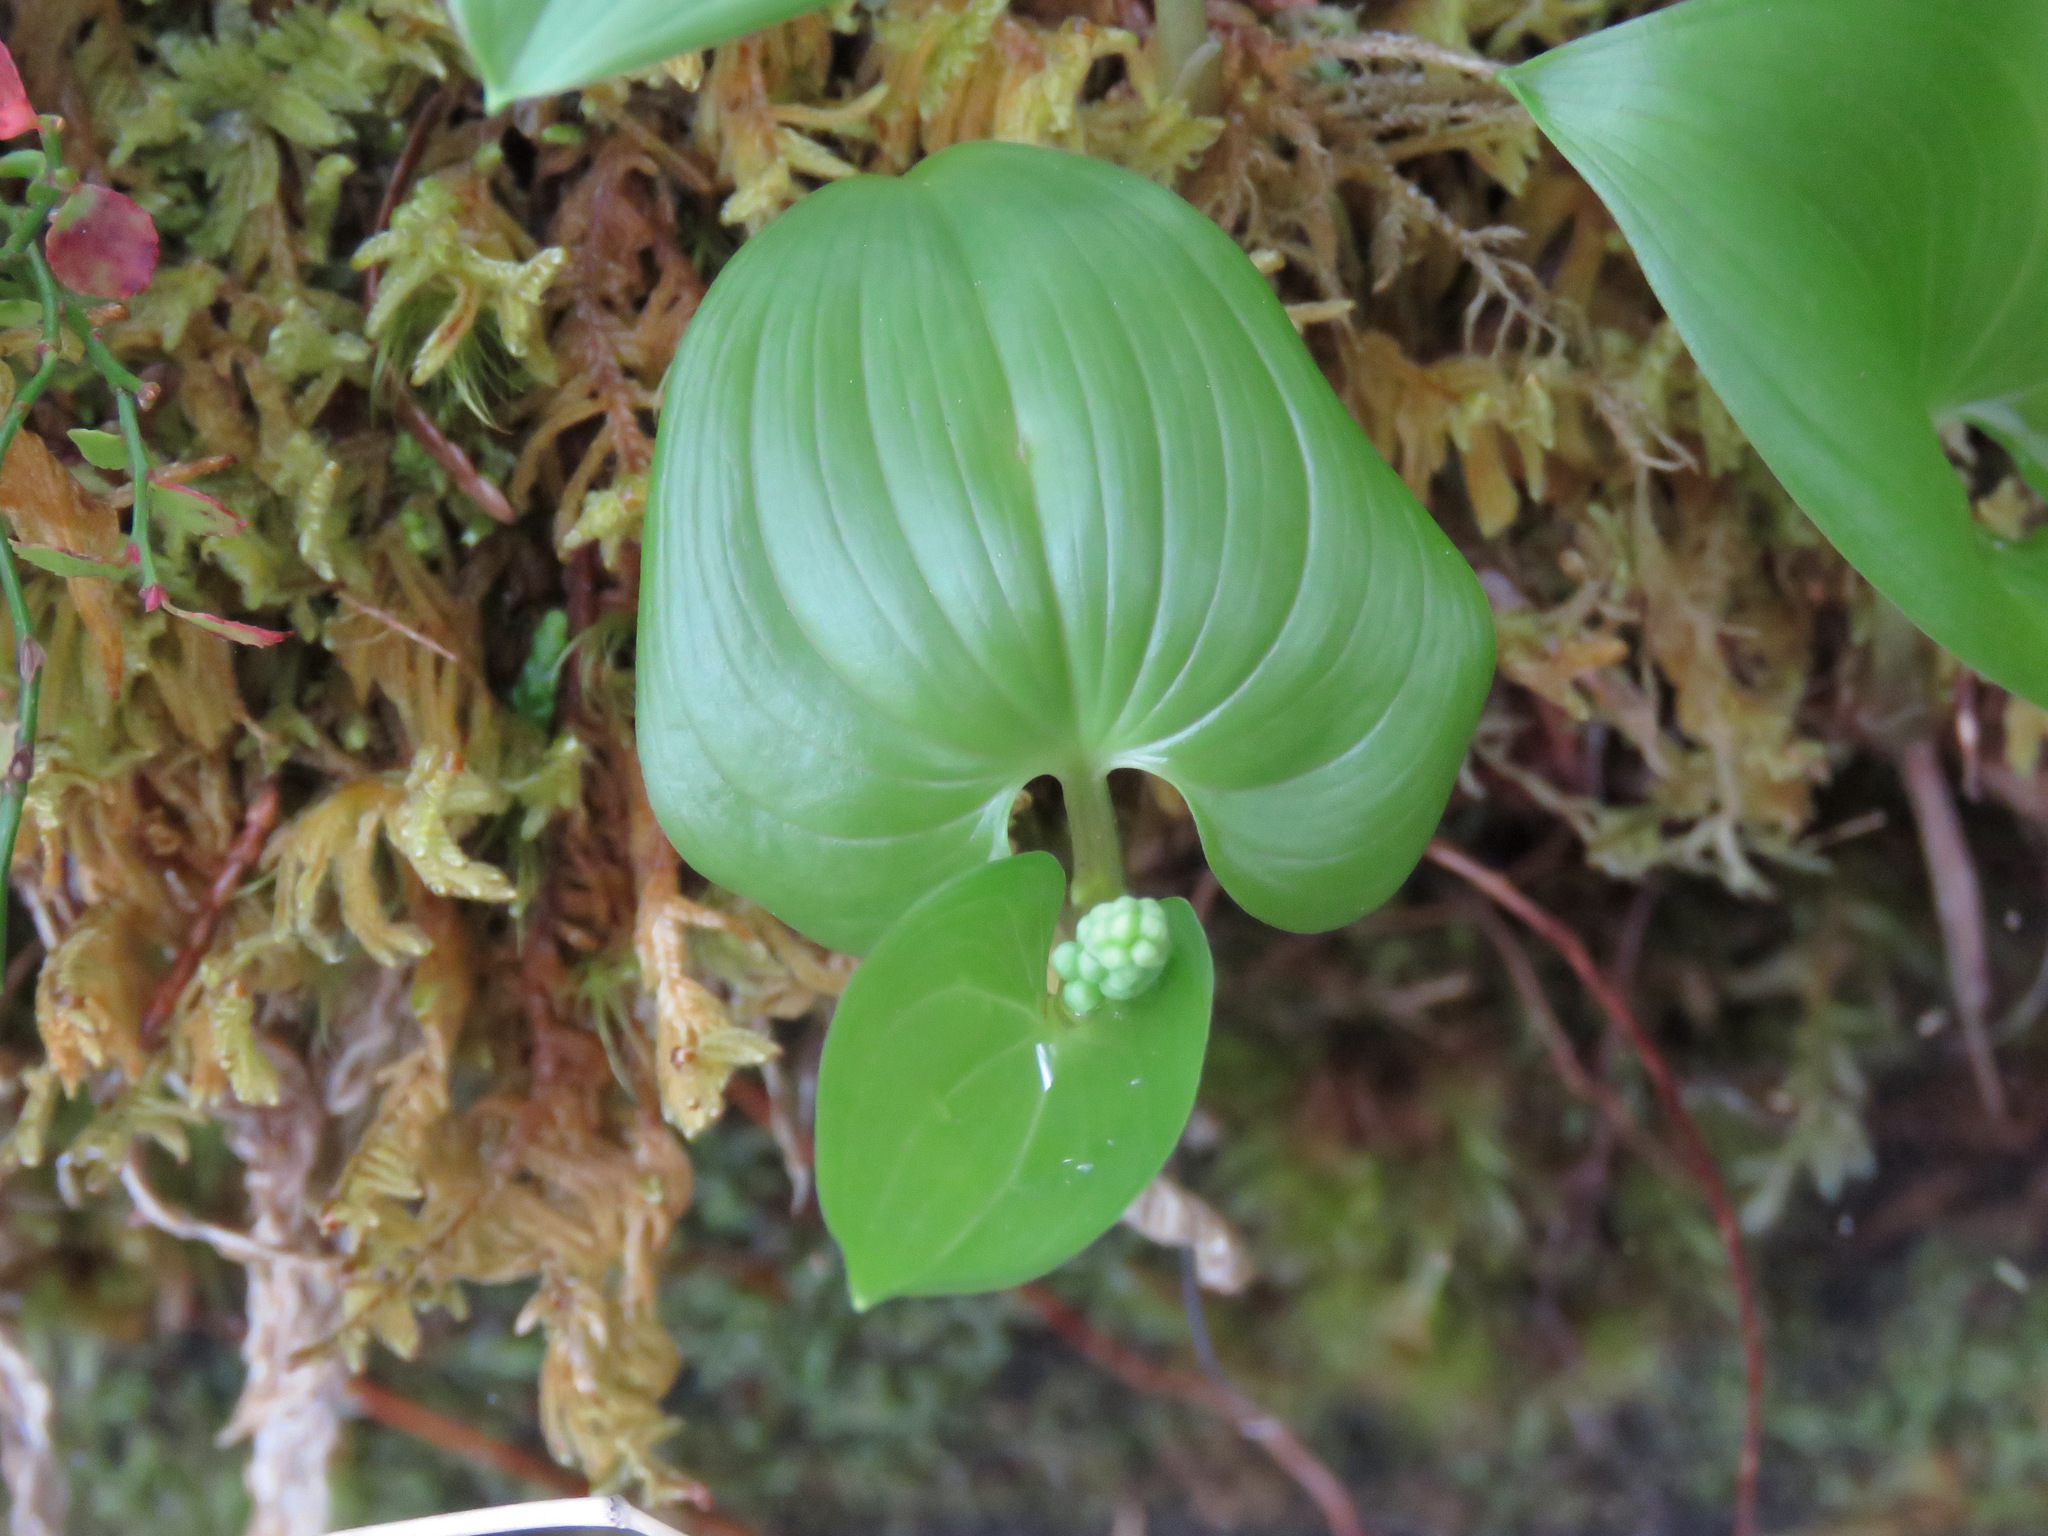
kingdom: Plantae
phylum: Tracheophyta
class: Liliopsida
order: Asparagales
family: Asparagaceae
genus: Maianthemum
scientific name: Maianthemum dilatatum
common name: False lily-of-the-valley
